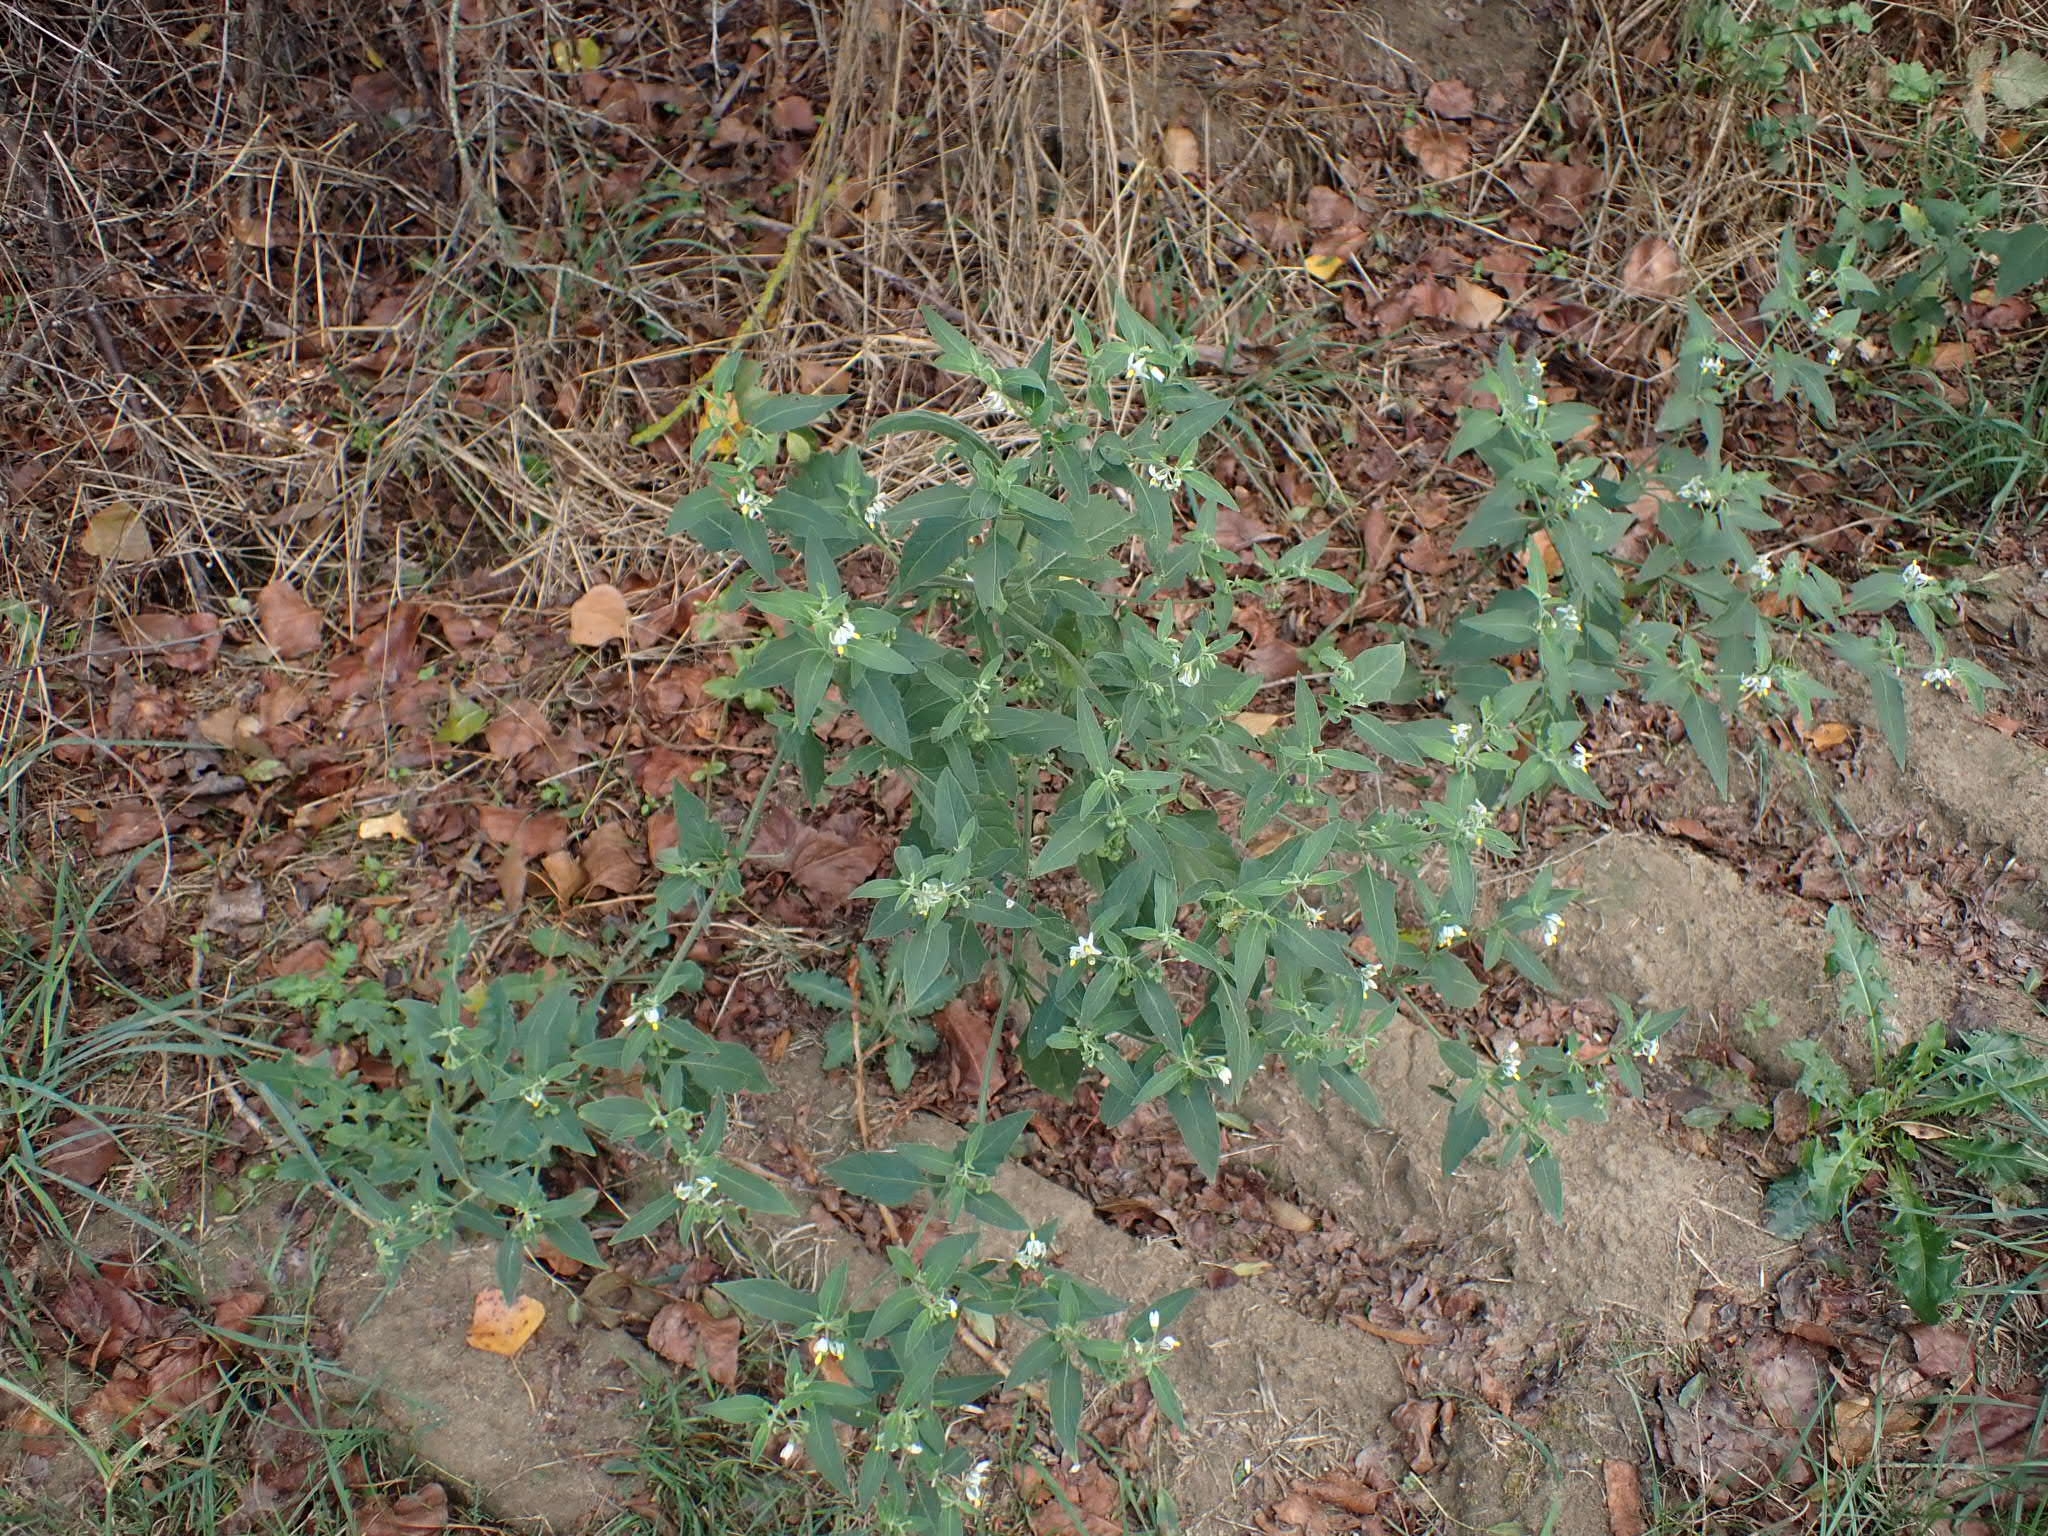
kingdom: Plantae
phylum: Tracheophyta
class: Magnoliopsida
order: Solanales
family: Solanaceae
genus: Solanum
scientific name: Solanum chenopodioides
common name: Tall nightshade
